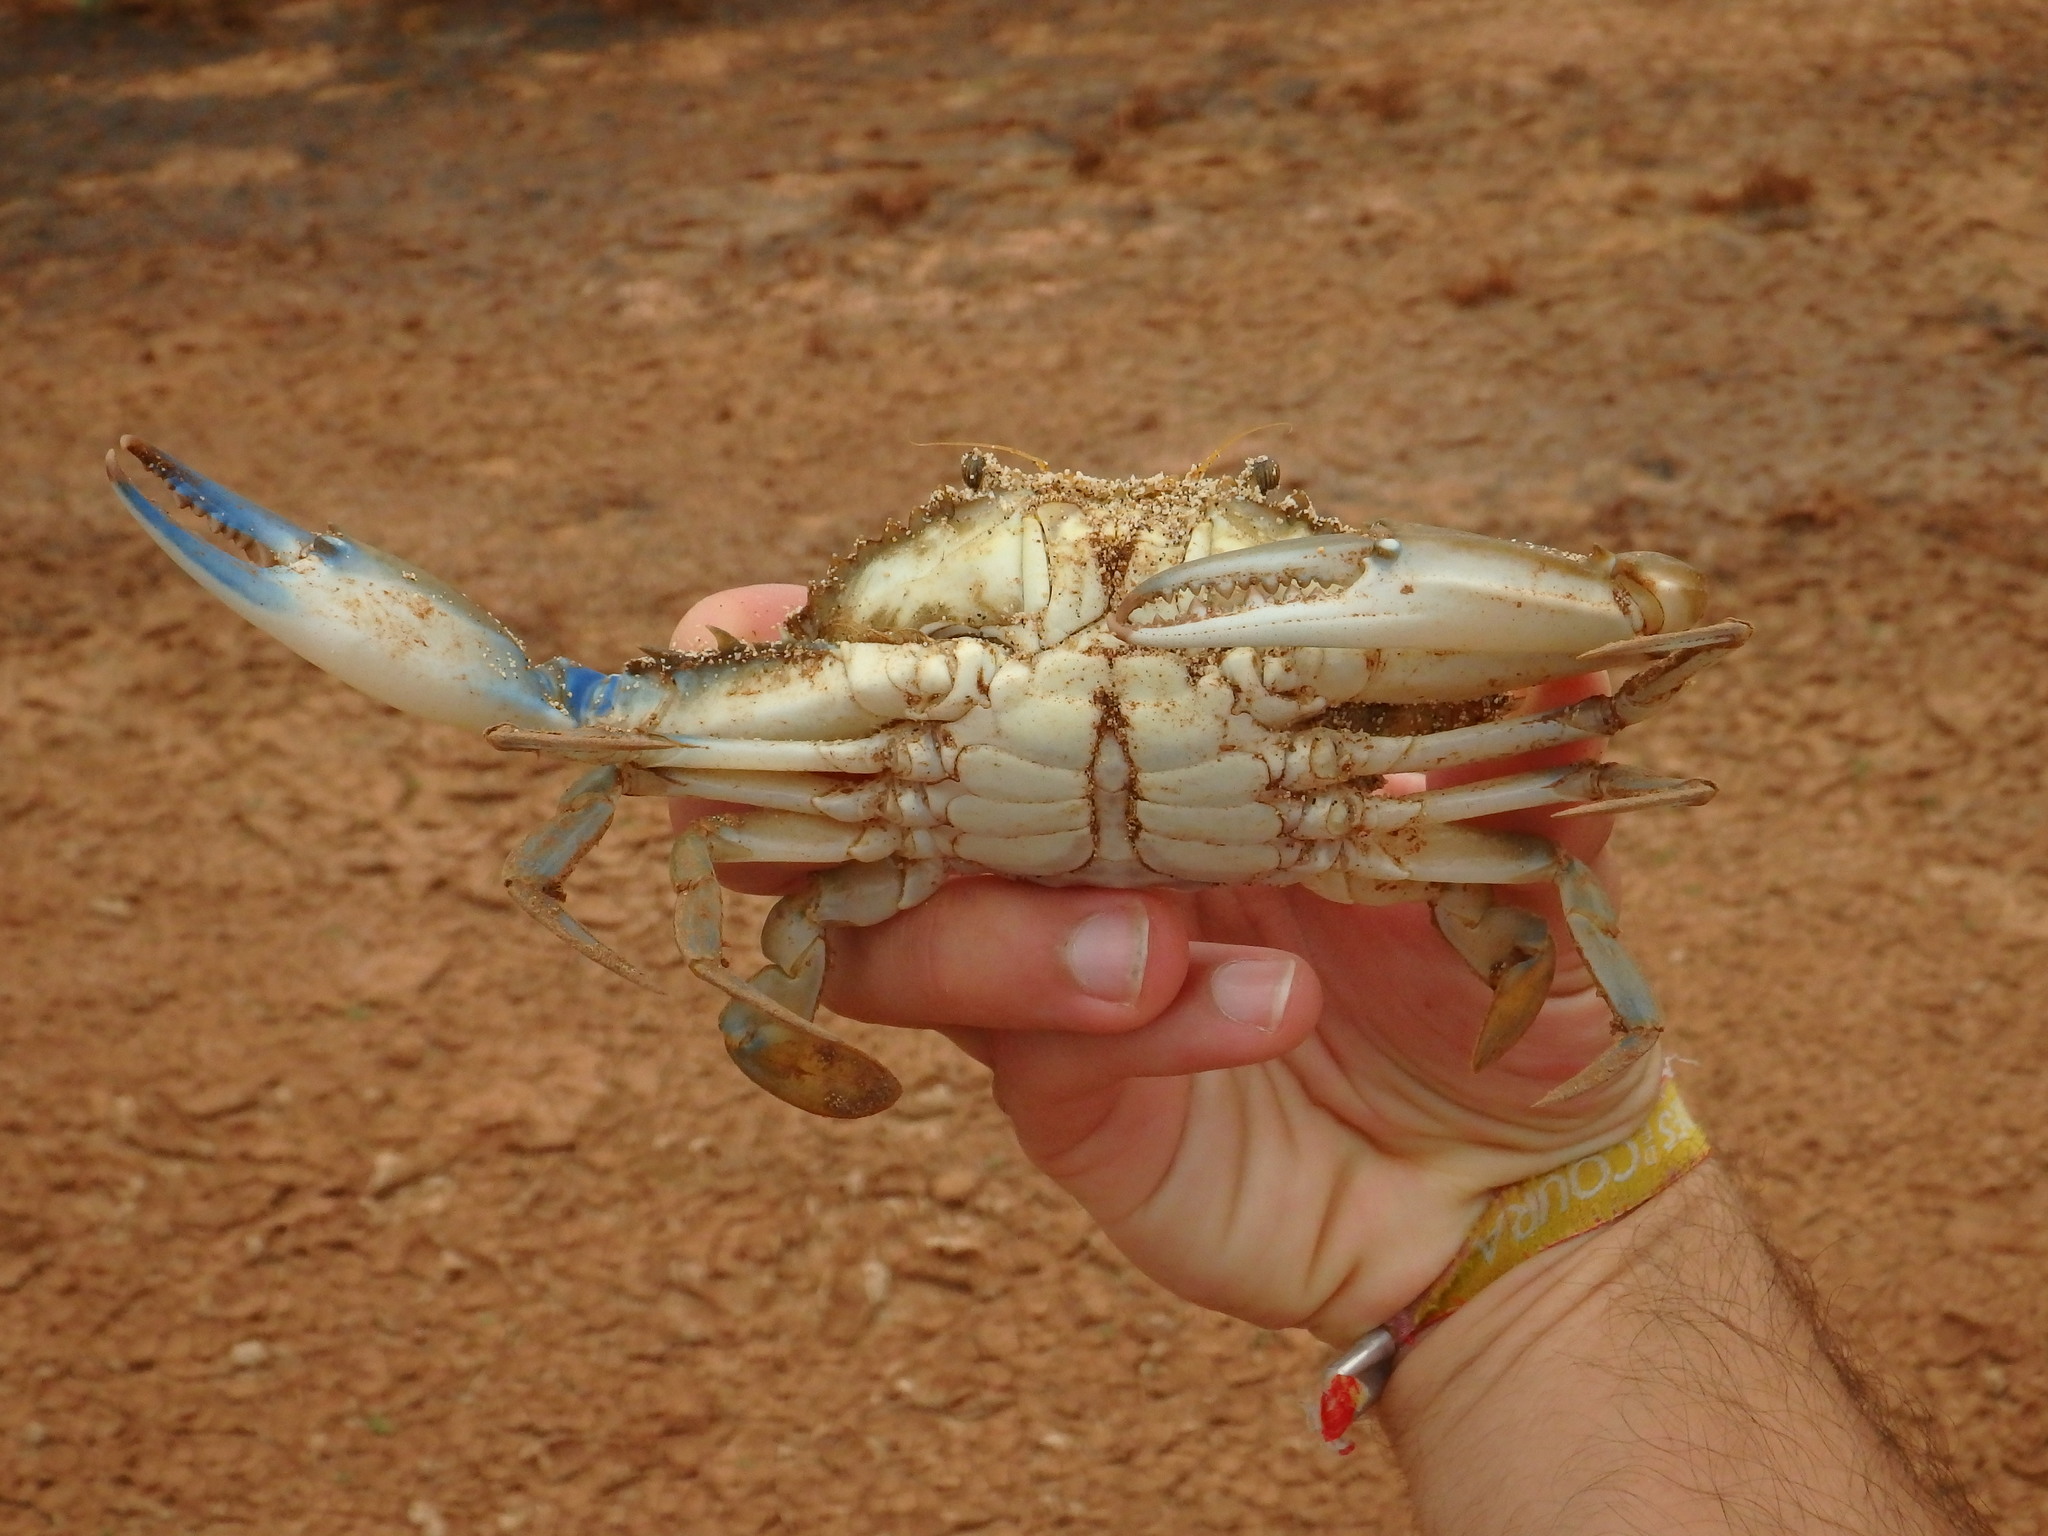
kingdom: Animalia
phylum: Arthropoda
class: Malacostraca
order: Decapoda
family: Portunidae
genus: Callinectes
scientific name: Callinectes amnicola
